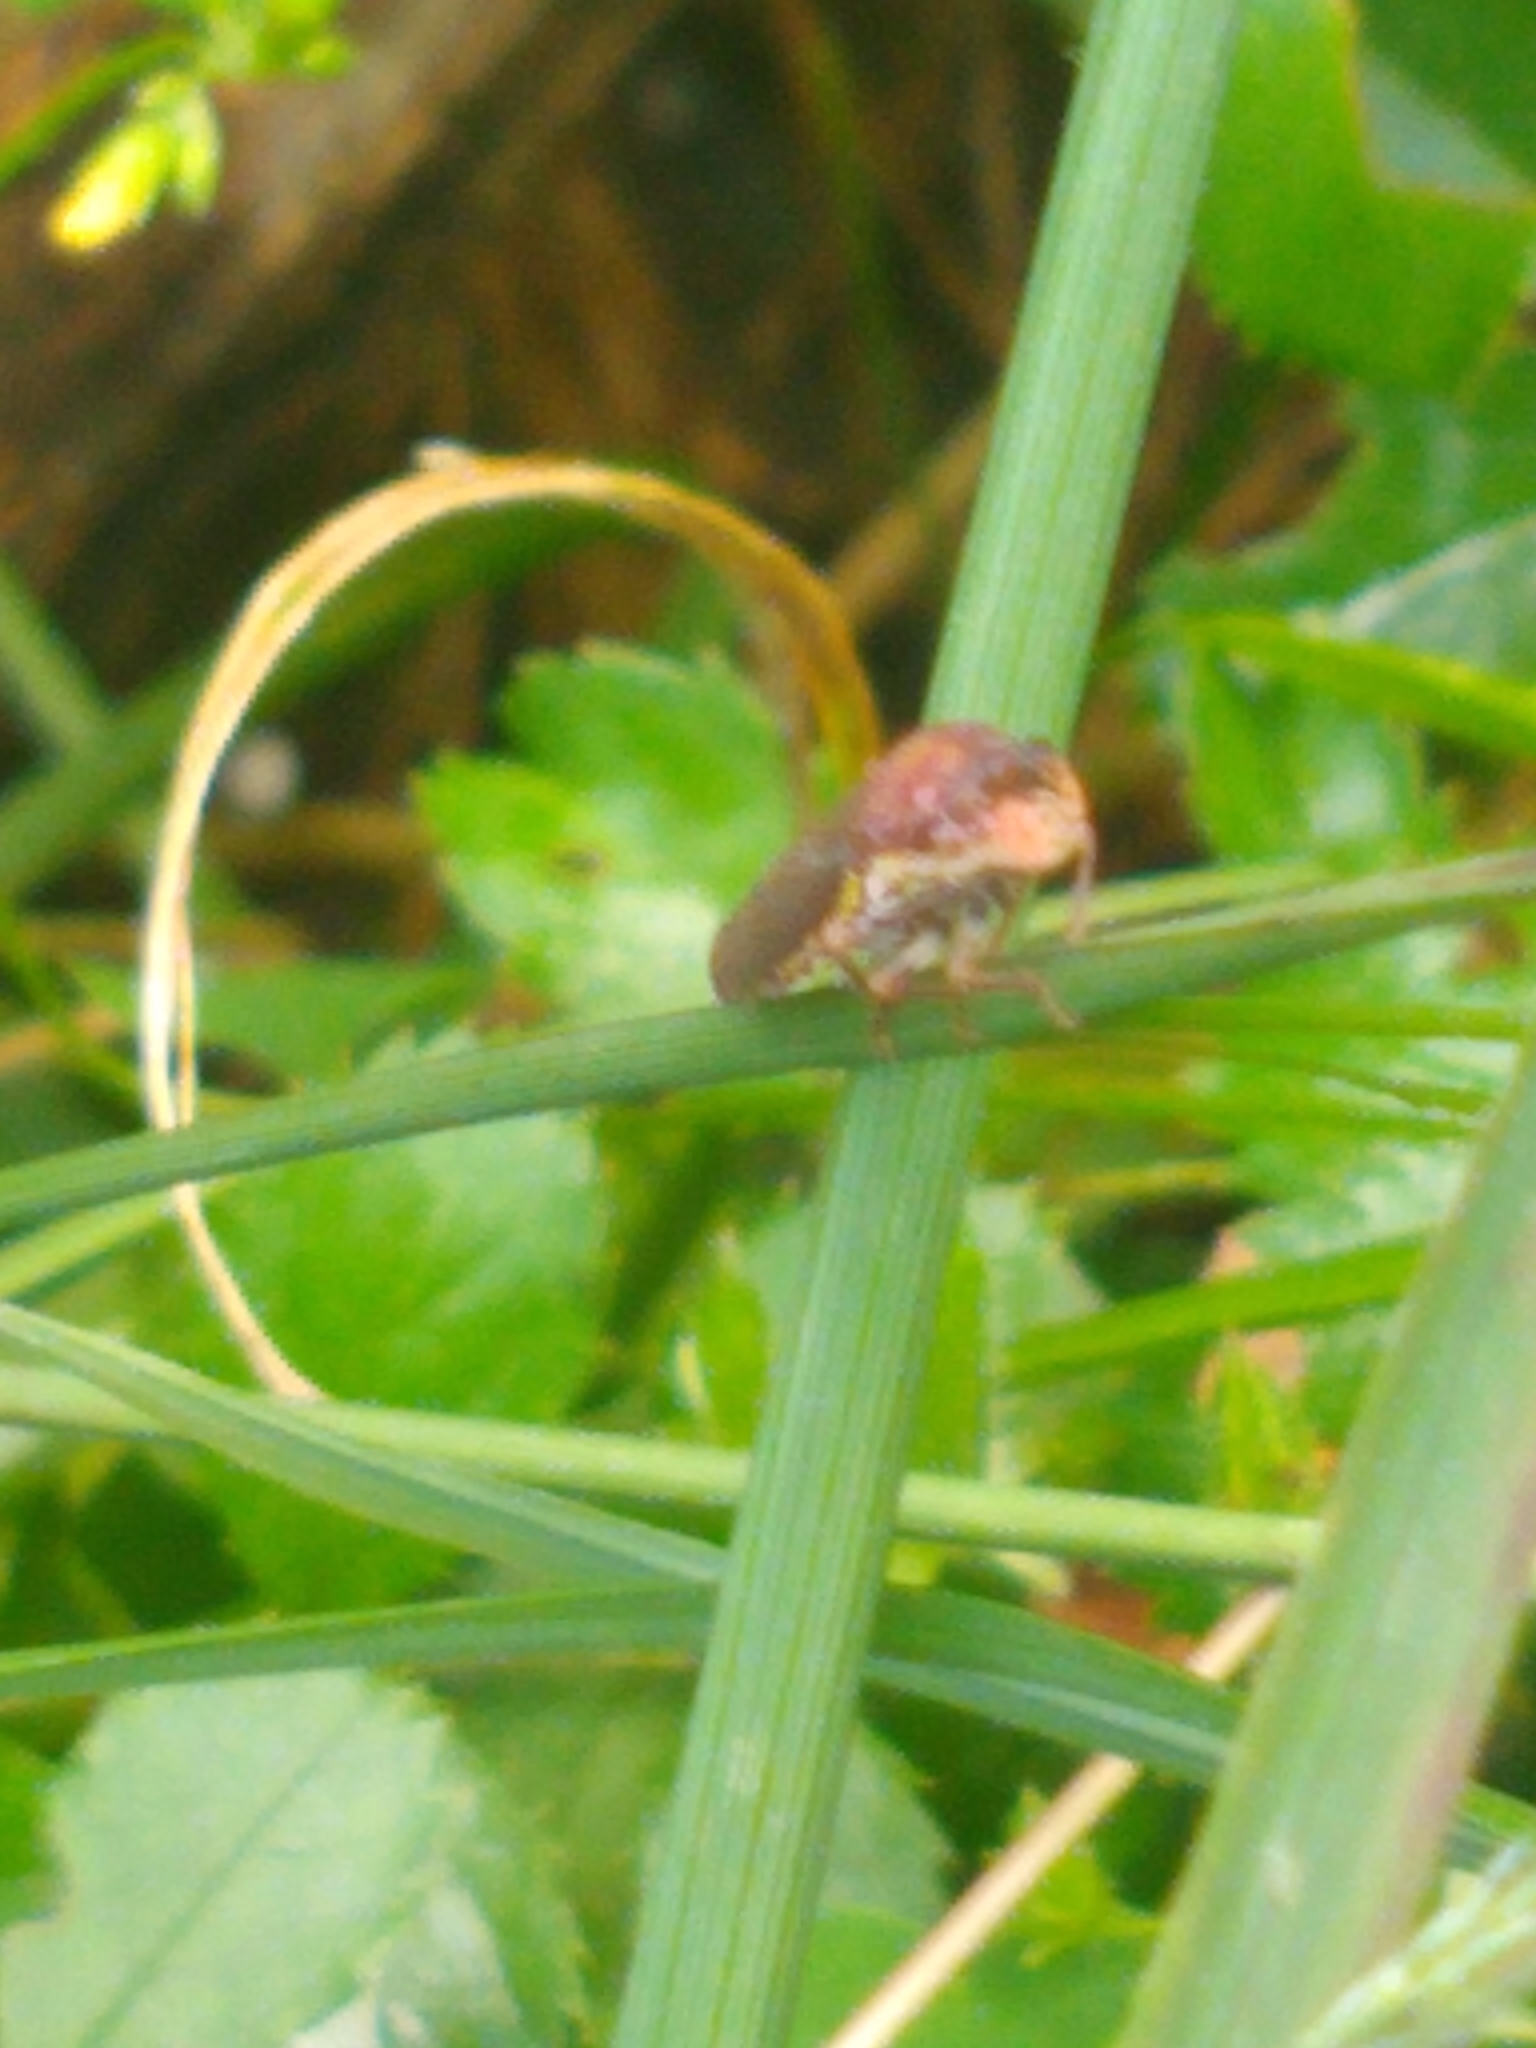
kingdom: Animalia
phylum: Arthropoda
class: Insecta
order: Hemiptera
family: Cicadellidae
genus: Paraulacizes
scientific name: Paraulacizes irrorata
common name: Speckled sharpshooter
